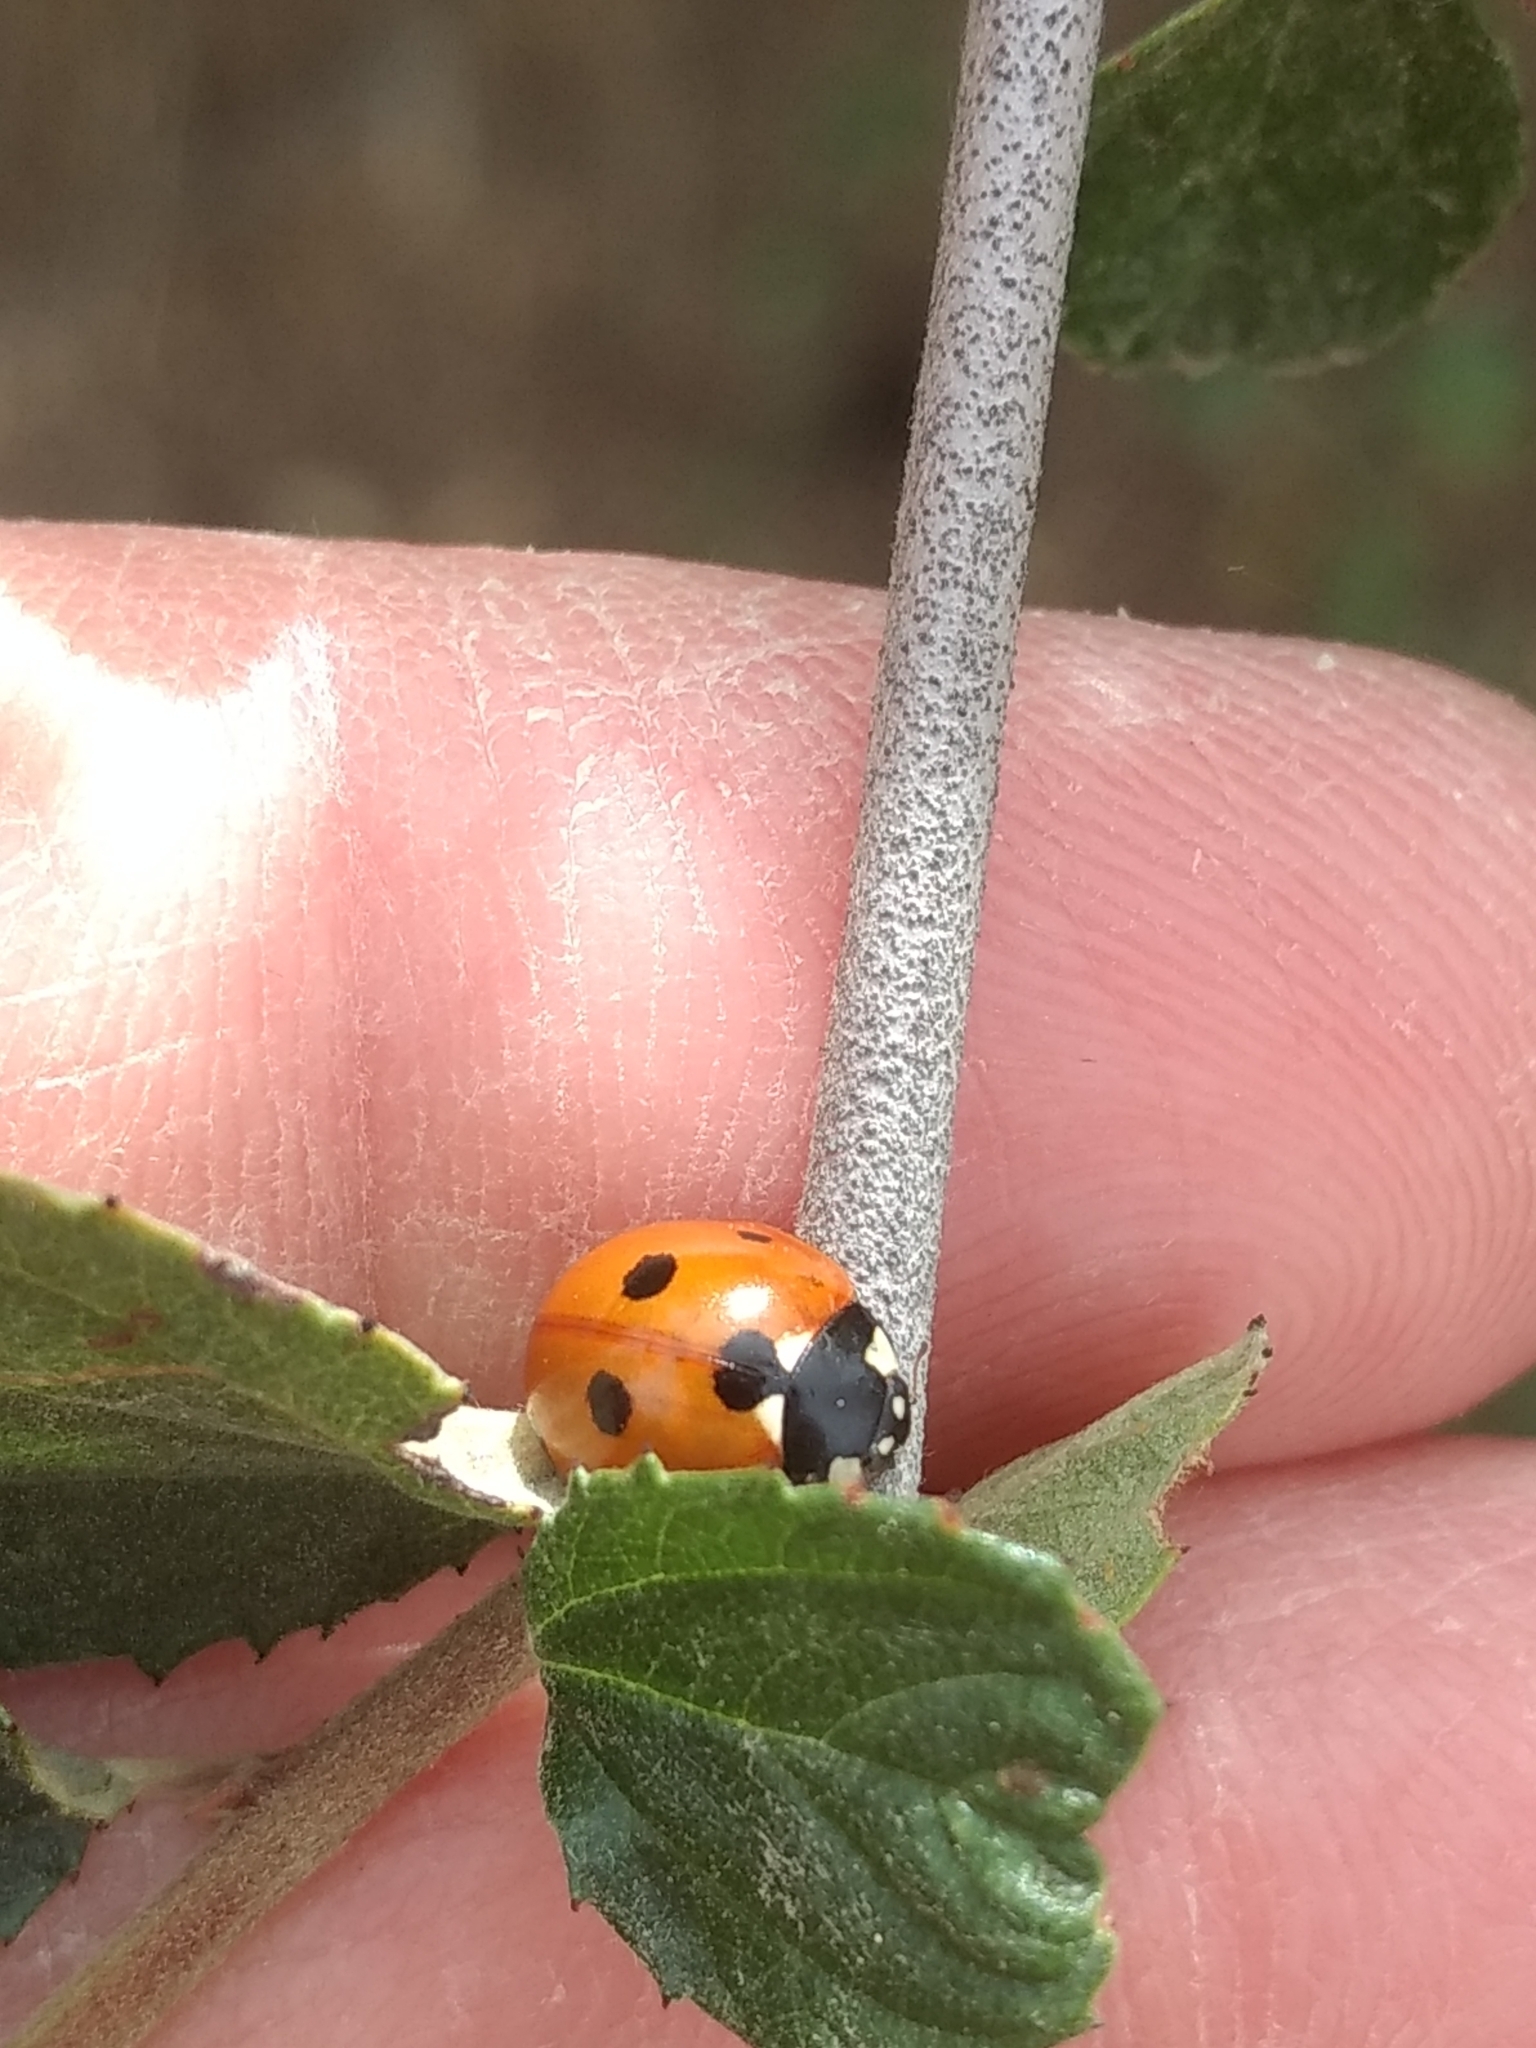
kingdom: Animalia
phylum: Arthropoda
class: Insecta
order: Coleoptera
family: Coccinellidae
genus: Coccinella
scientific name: Coccinella septempunctata
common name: Sevenspotted lady beetle
